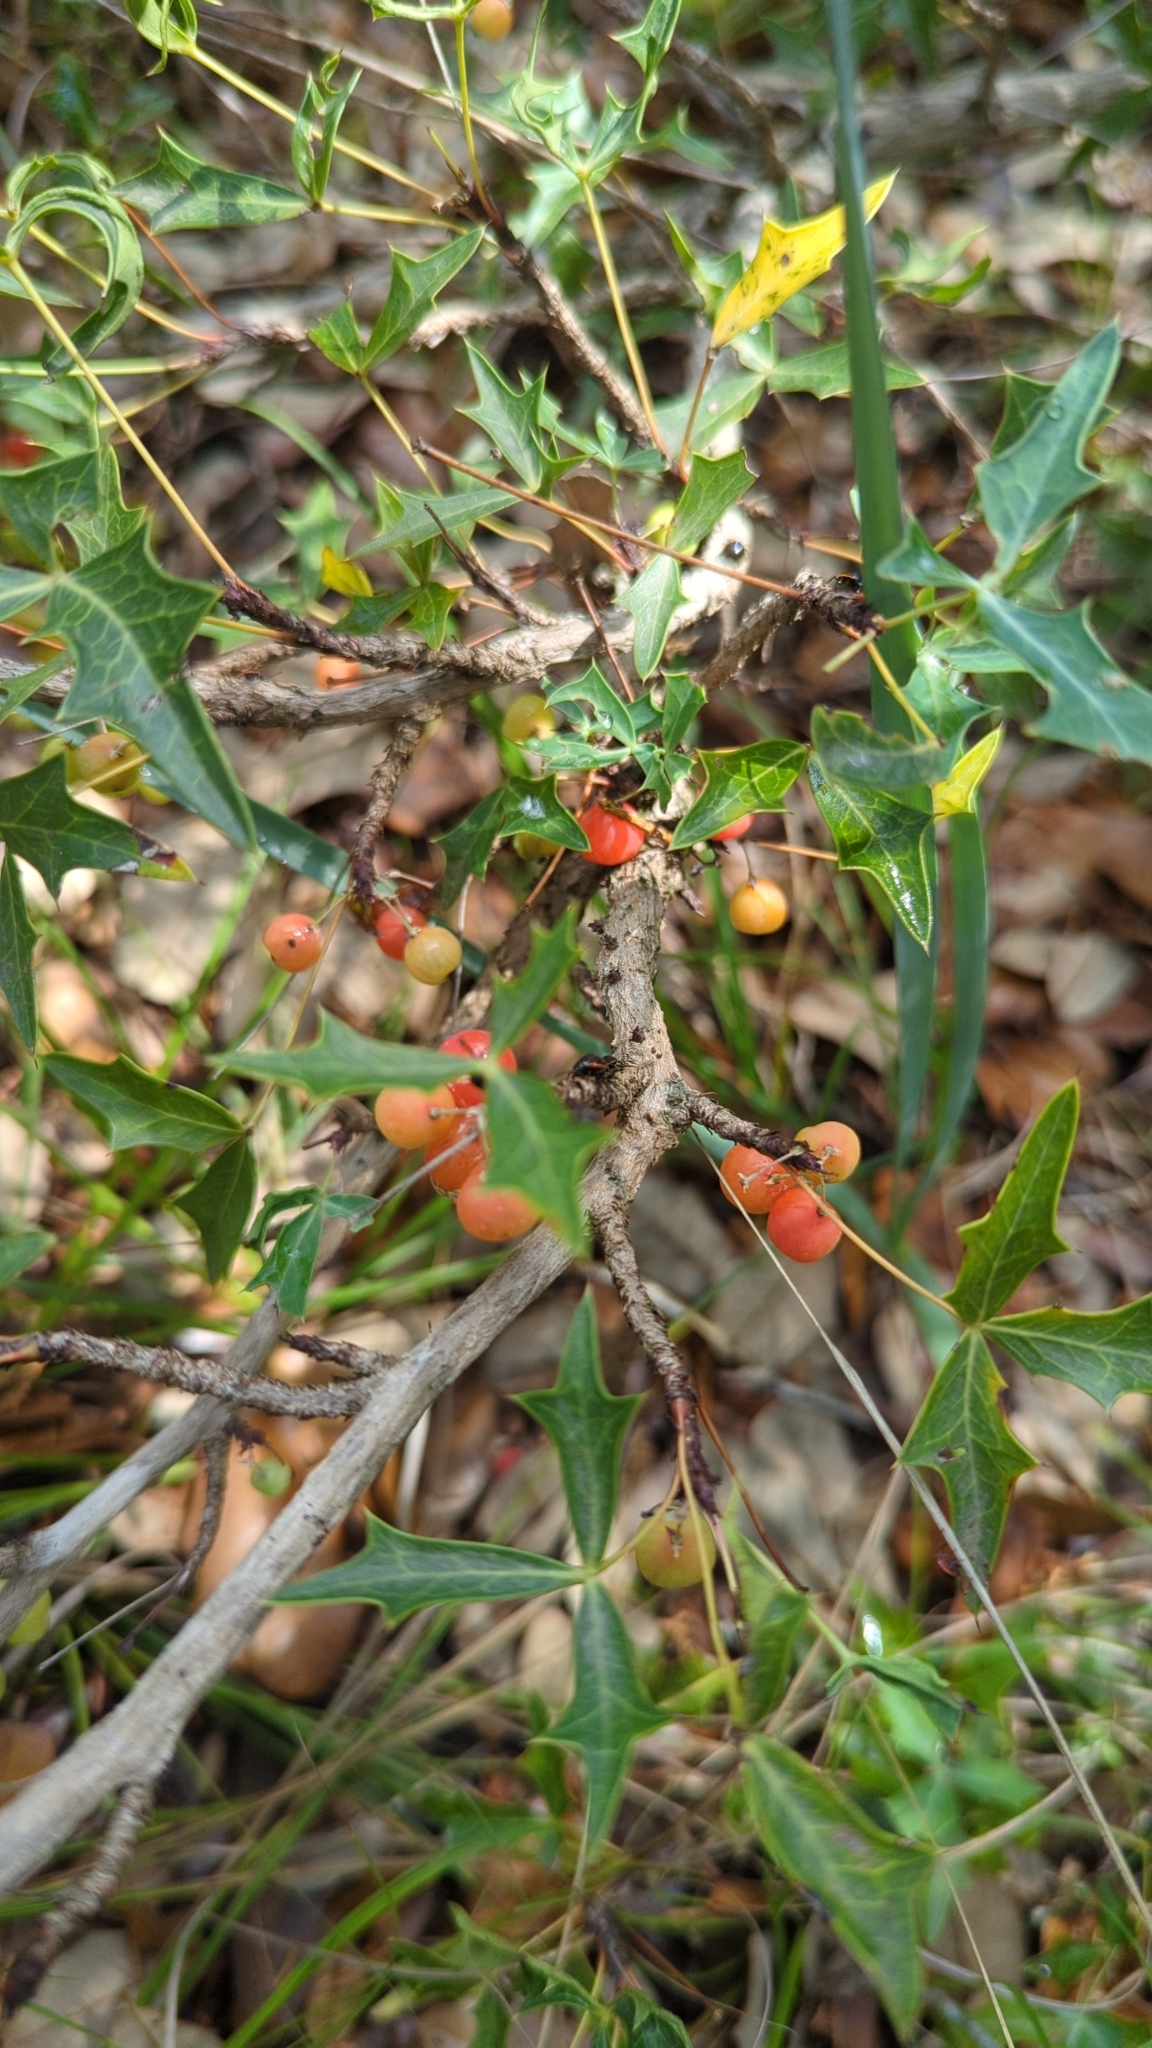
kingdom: Plantae
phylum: Tracheophyta
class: Magnoliopsida
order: Ranunculales
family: Berberidaceae
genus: Alloberberis
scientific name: Alloberberis trifoliolata
